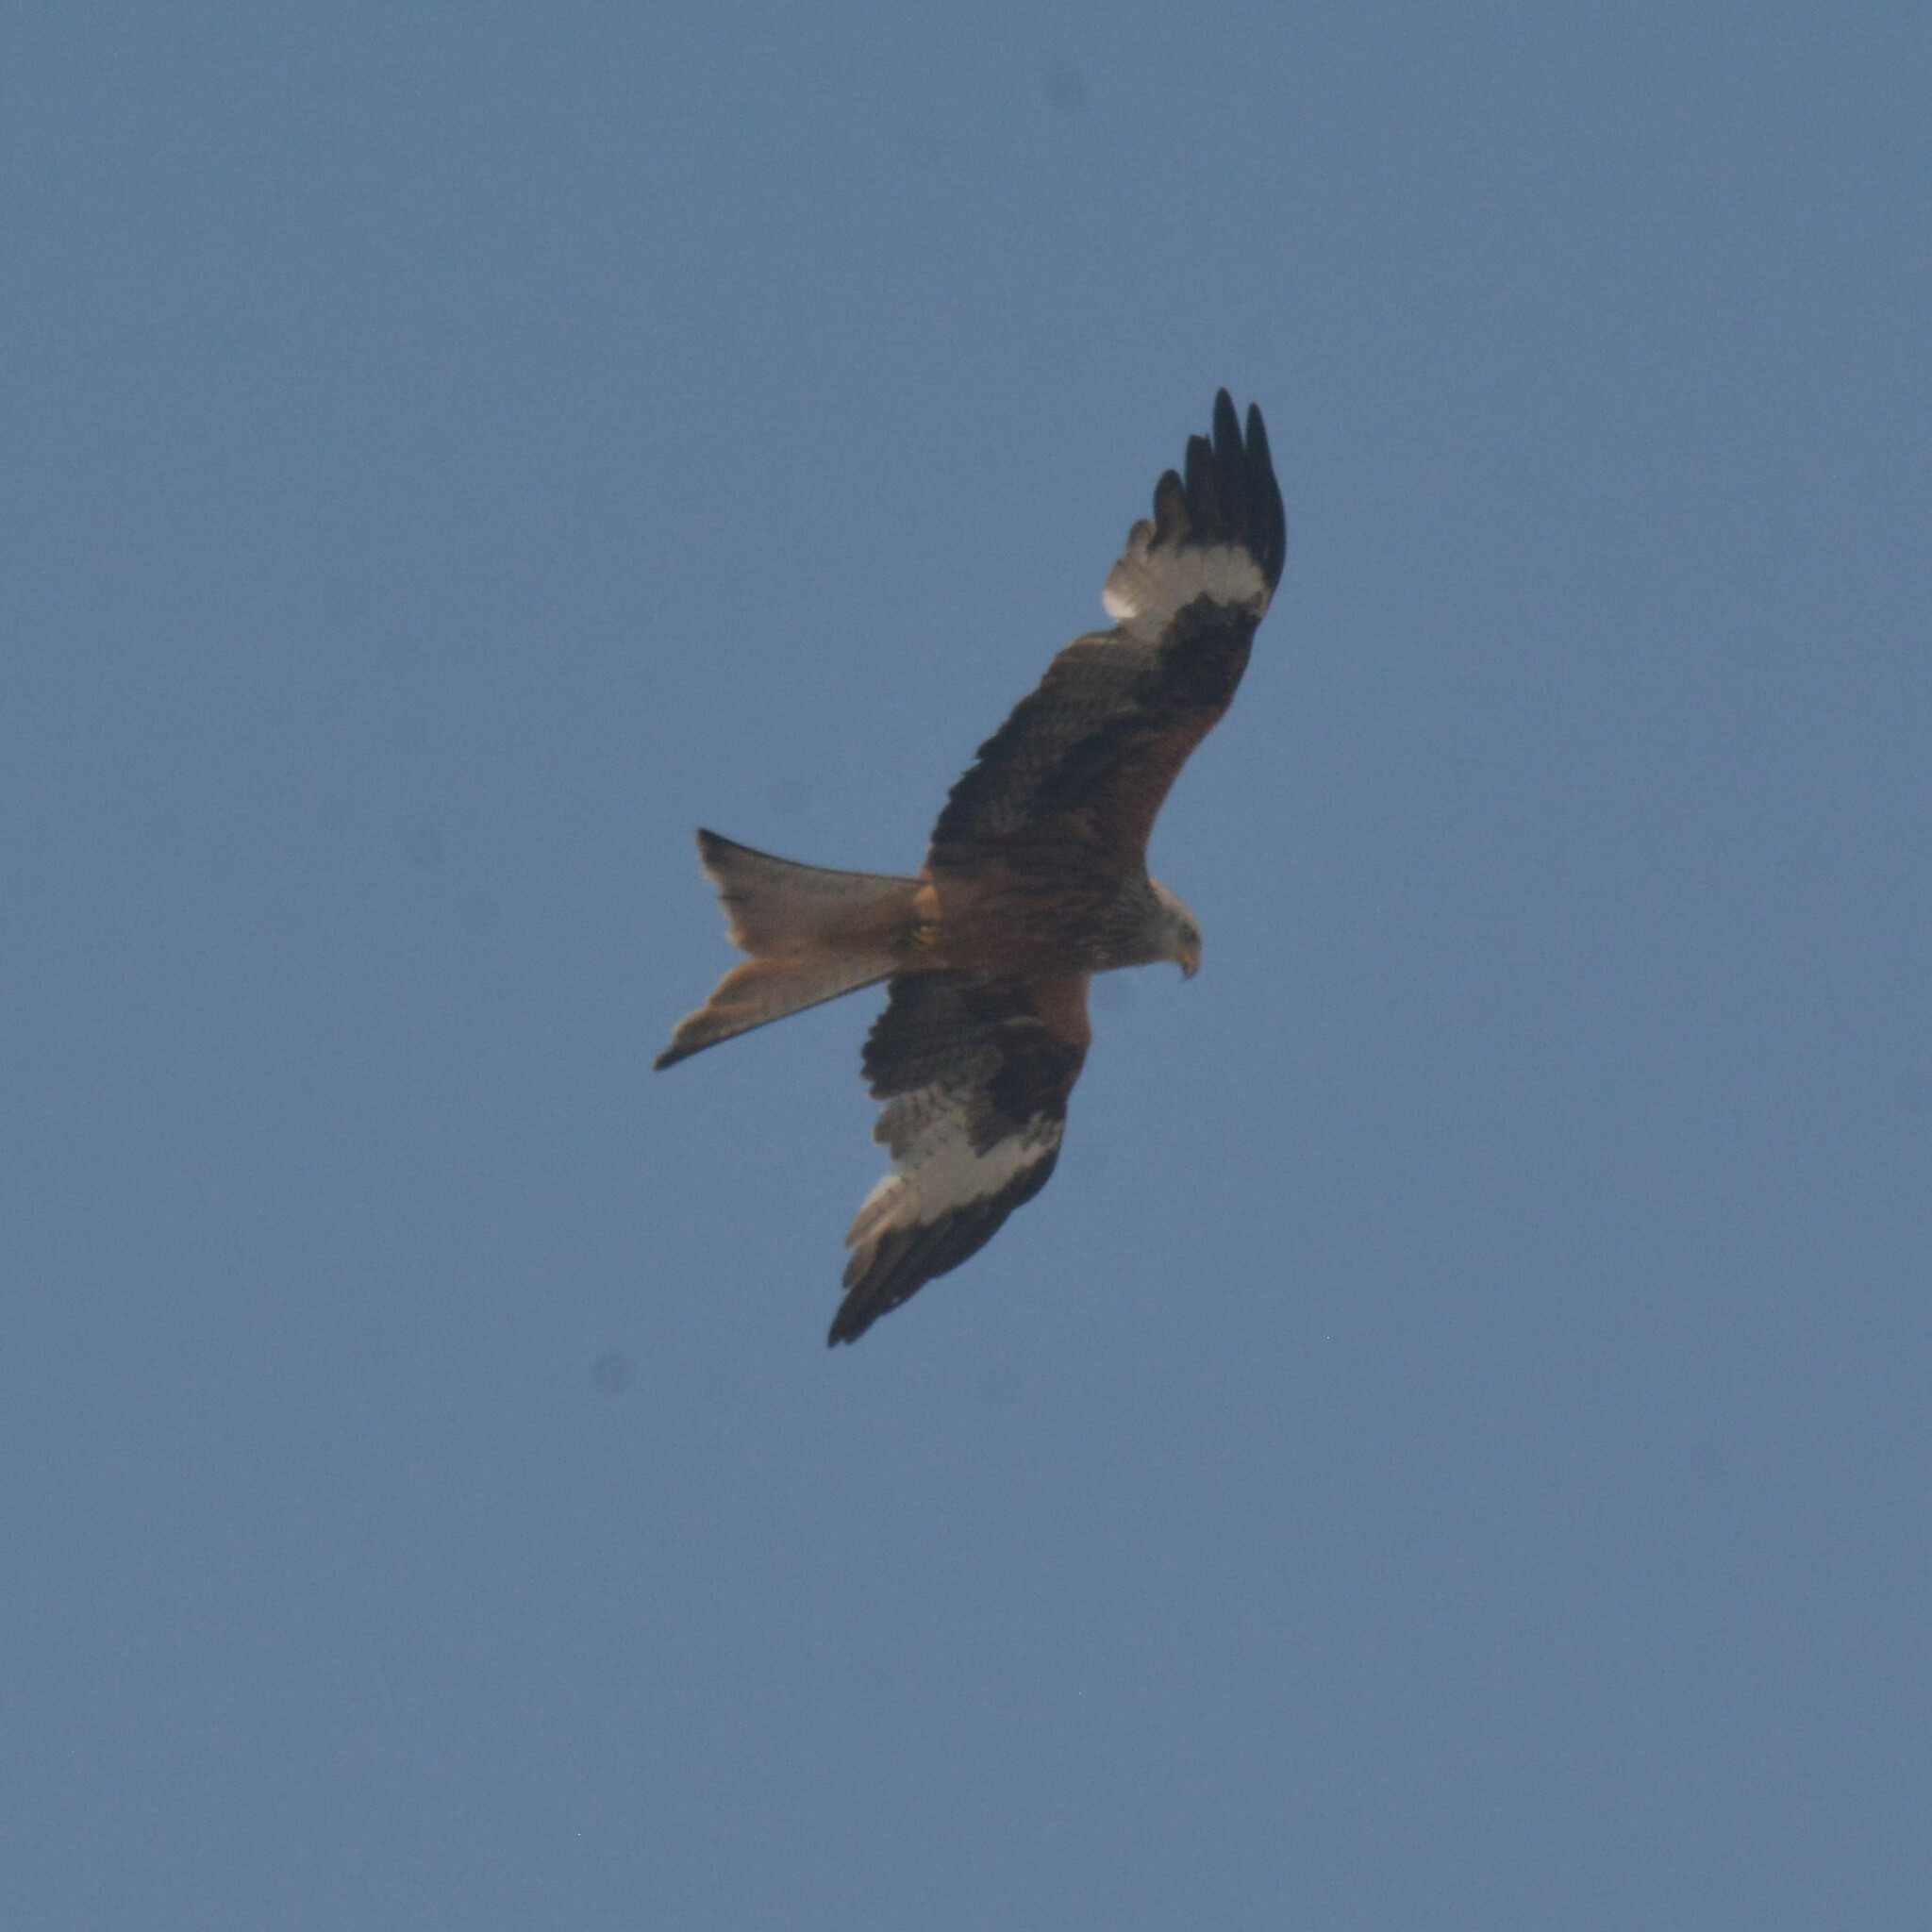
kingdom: Animalia
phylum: Chordata
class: Aves
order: Accipitriformes
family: Accipitridae
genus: Milvus
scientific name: Milvus milvus
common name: Red kite
